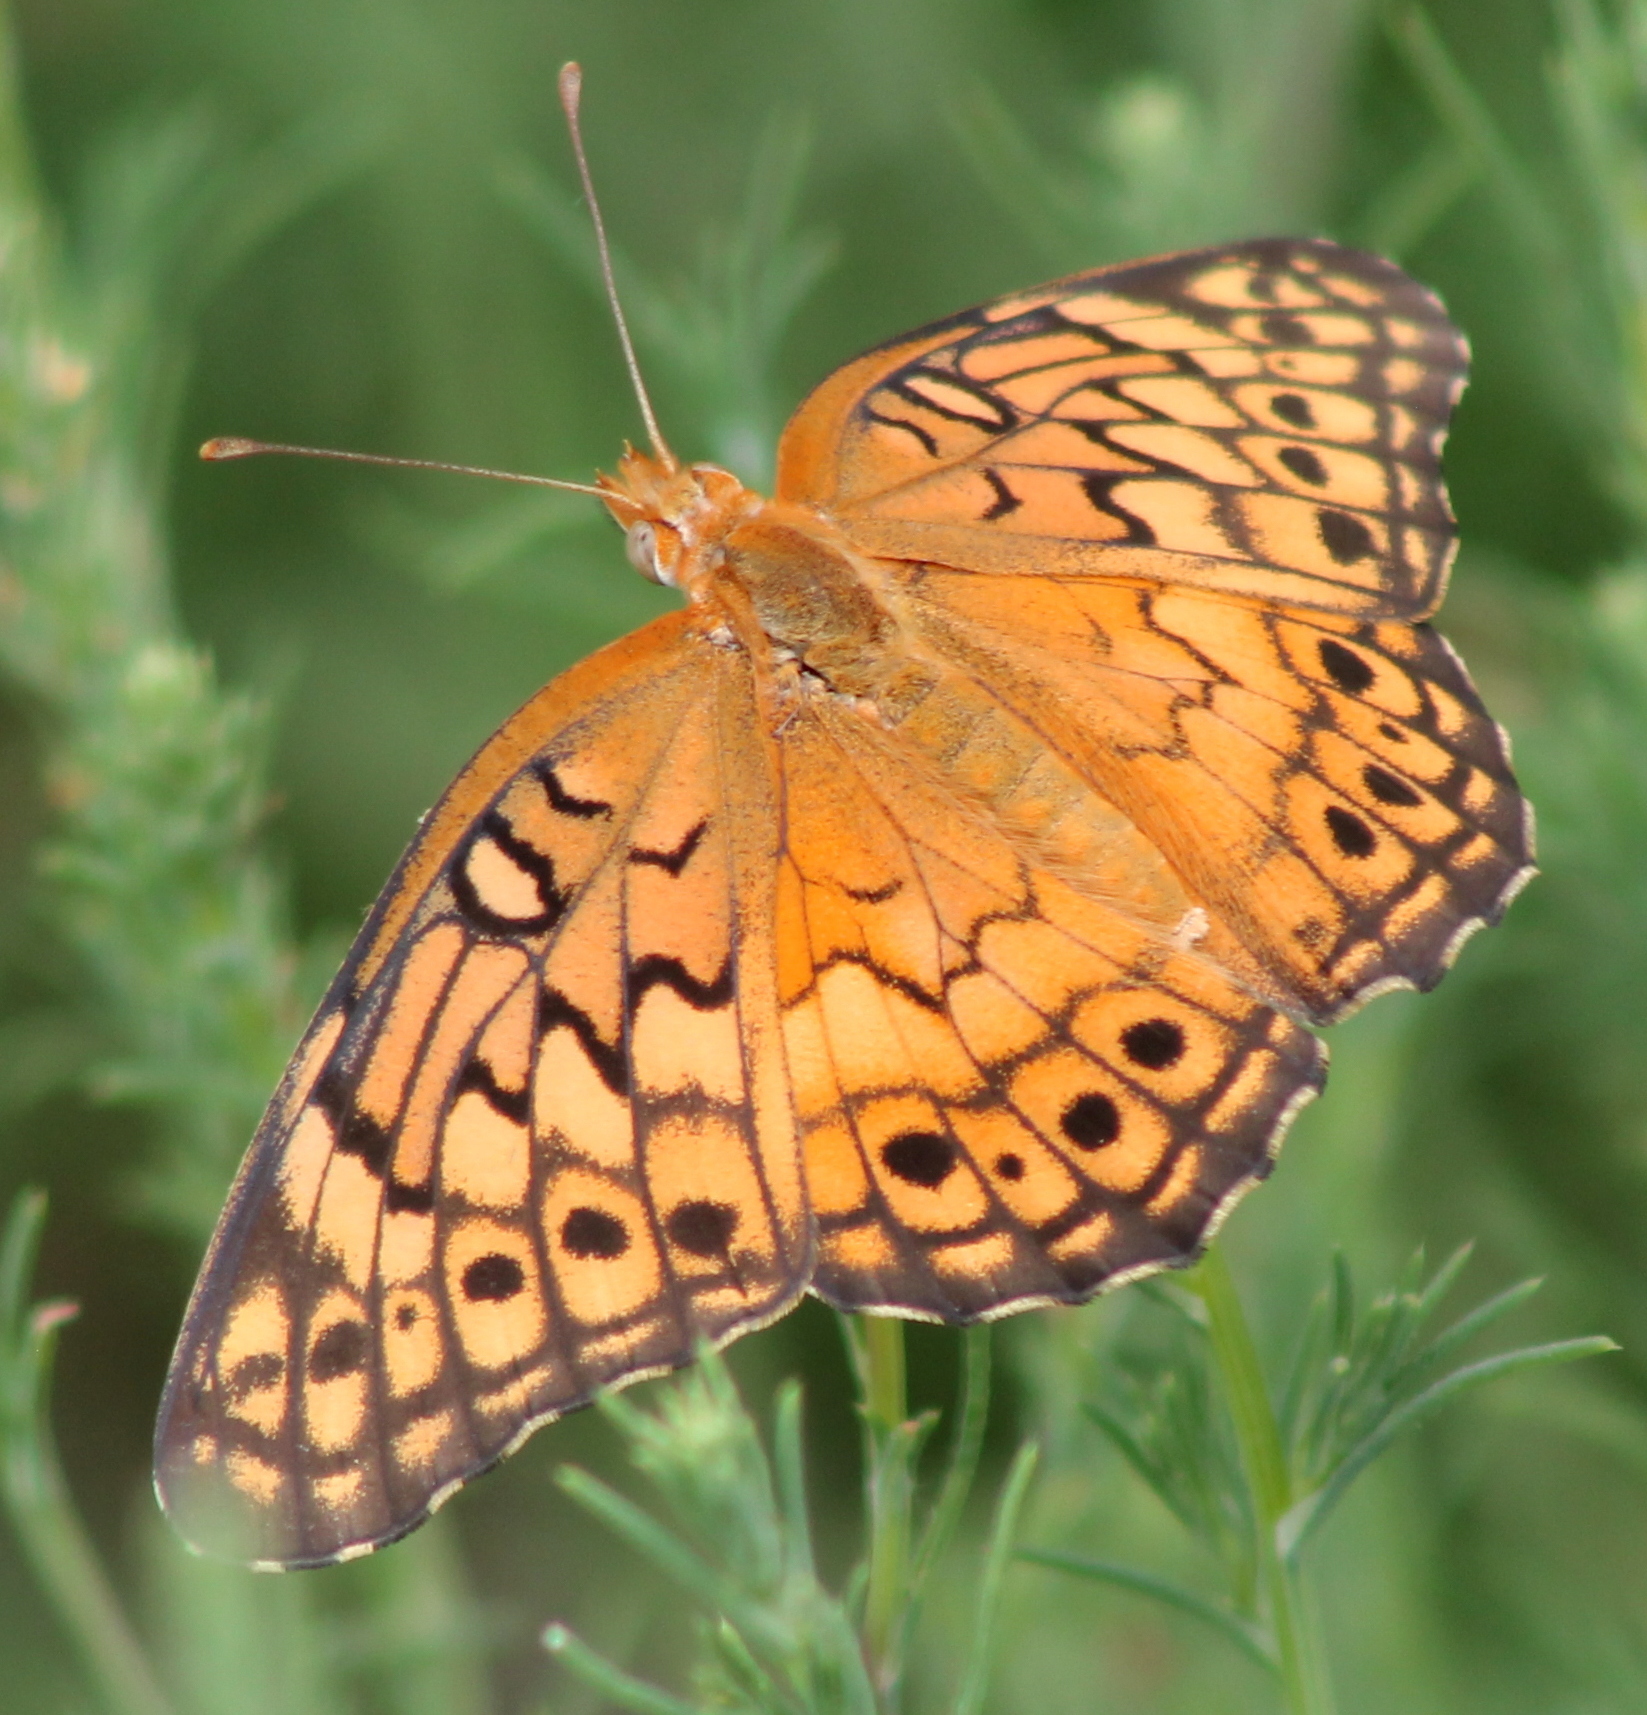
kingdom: Animalia
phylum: Arthropoda
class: Insecta
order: Lepidoptera
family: Nymphalidae
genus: Euptoieta
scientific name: Euptoieta claudia
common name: Variegated fritillary
